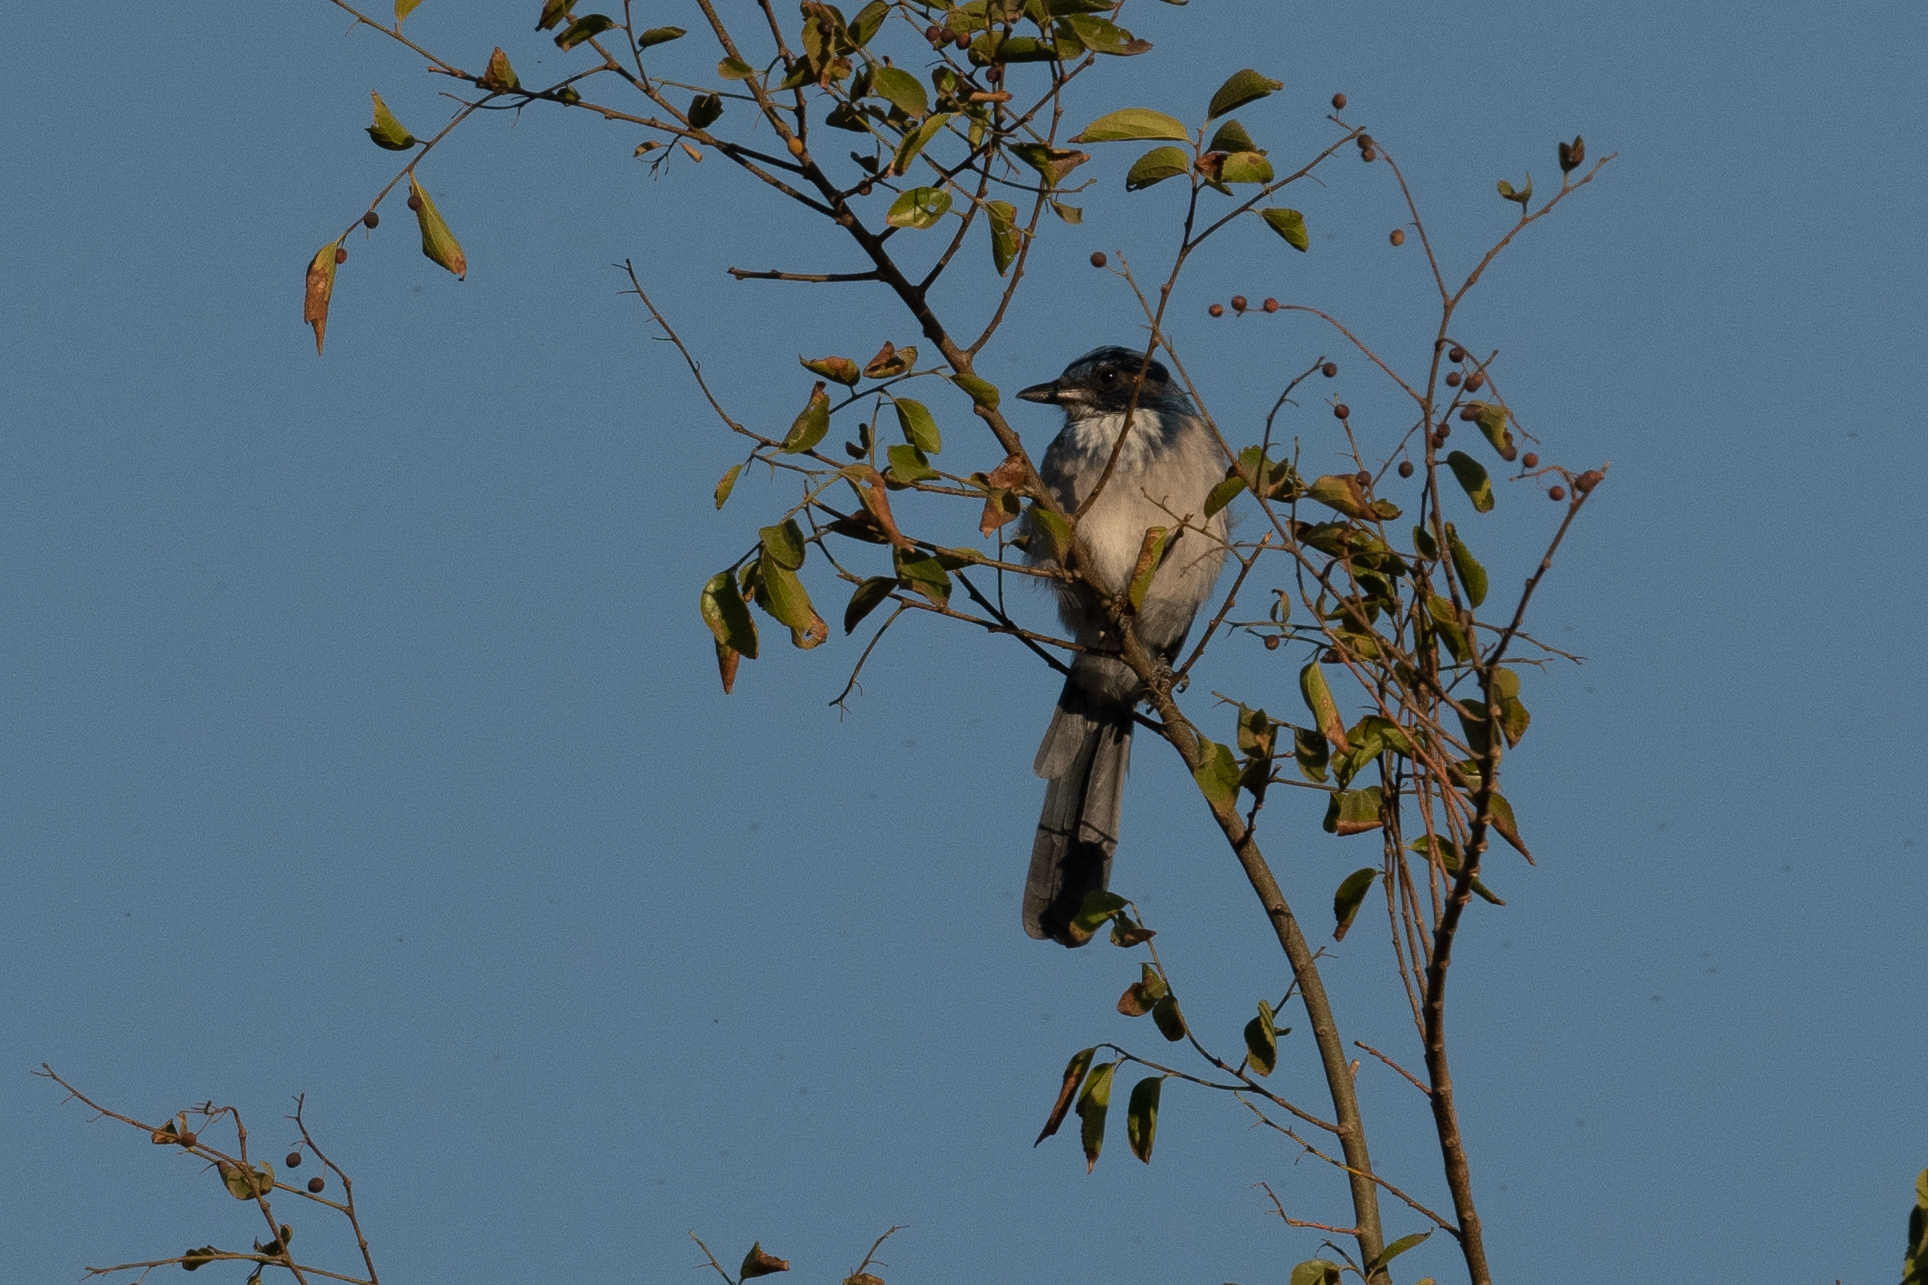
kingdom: Animalia
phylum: Chordata
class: Aves
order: Passeriformes
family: Corvidae
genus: Aphelocoma
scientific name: Aphelocoma californica
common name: California scrub-jay
